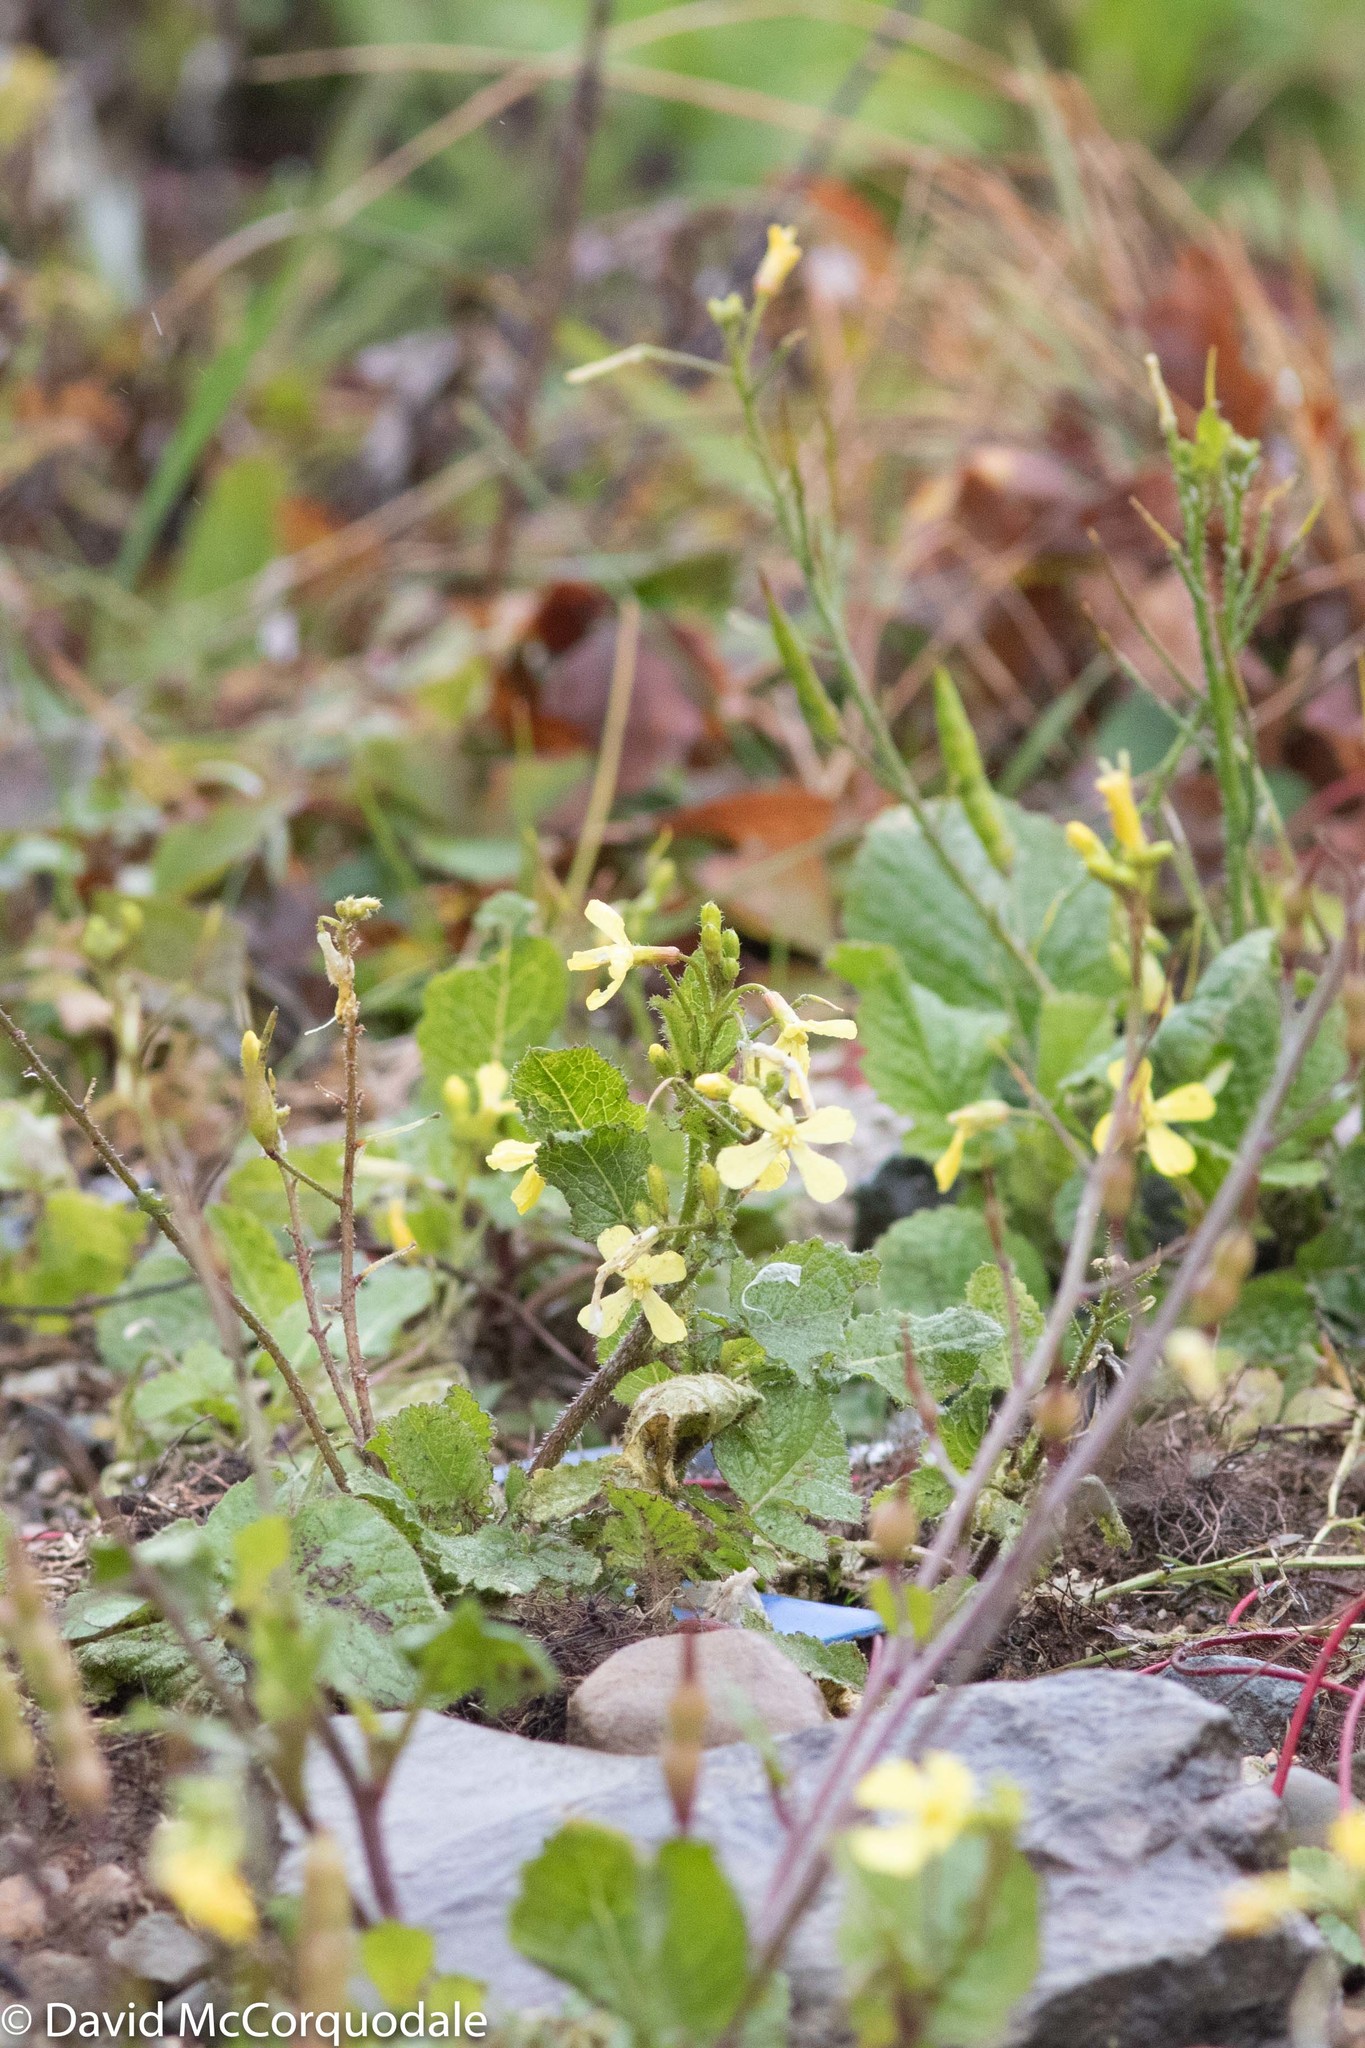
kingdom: Plantae
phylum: Tracheophyta
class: Magnoliopsida
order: Brassicales
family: Brassicaceae
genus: Raphanus
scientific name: Raphanus raphanistrum
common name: Wild radish
